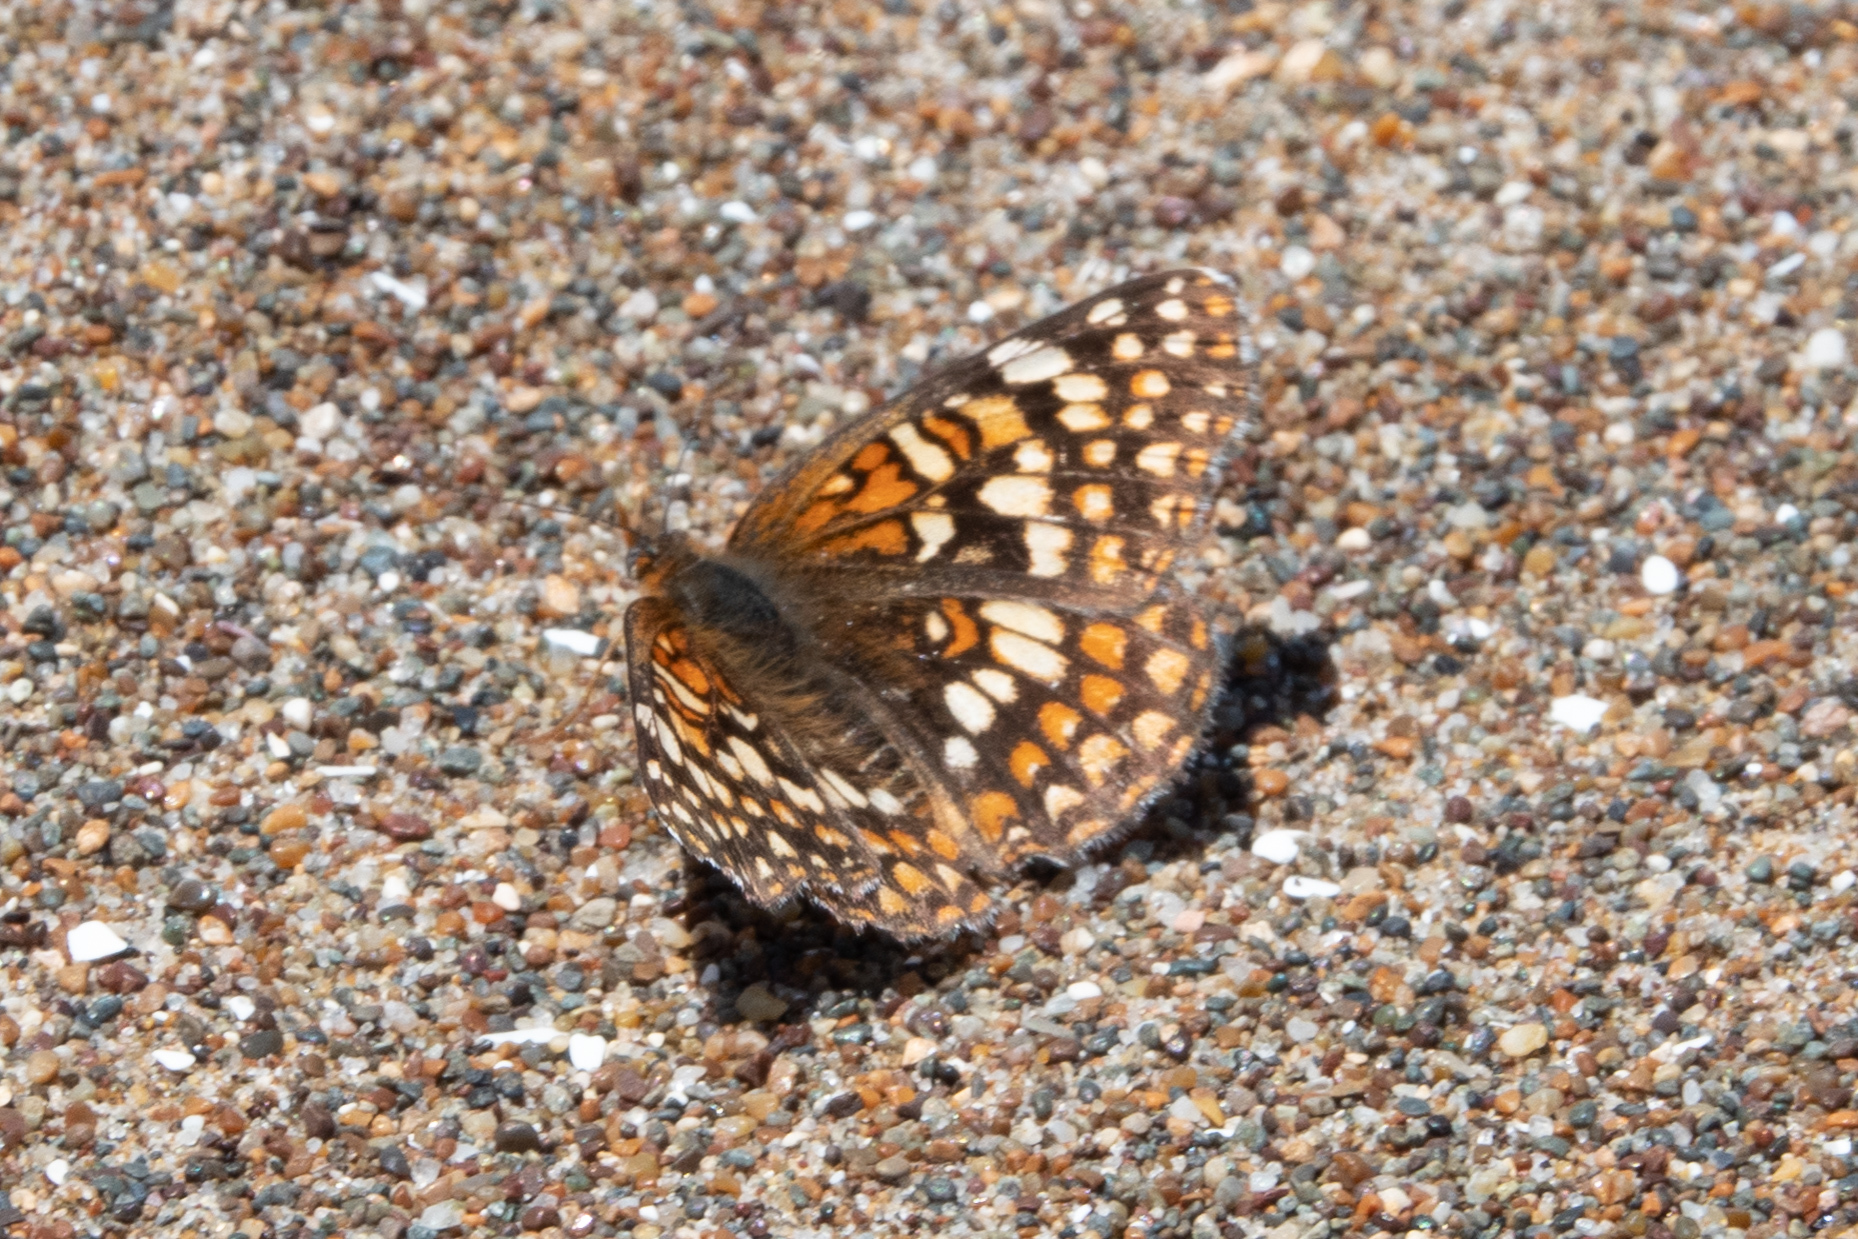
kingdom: Animalia
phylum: Arthropoda
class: Insecta
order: Lepidoptera
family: Nymphalidae
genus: Chlosyne
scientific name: Chlosyne gabbii
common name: Gabb's checkerspot
